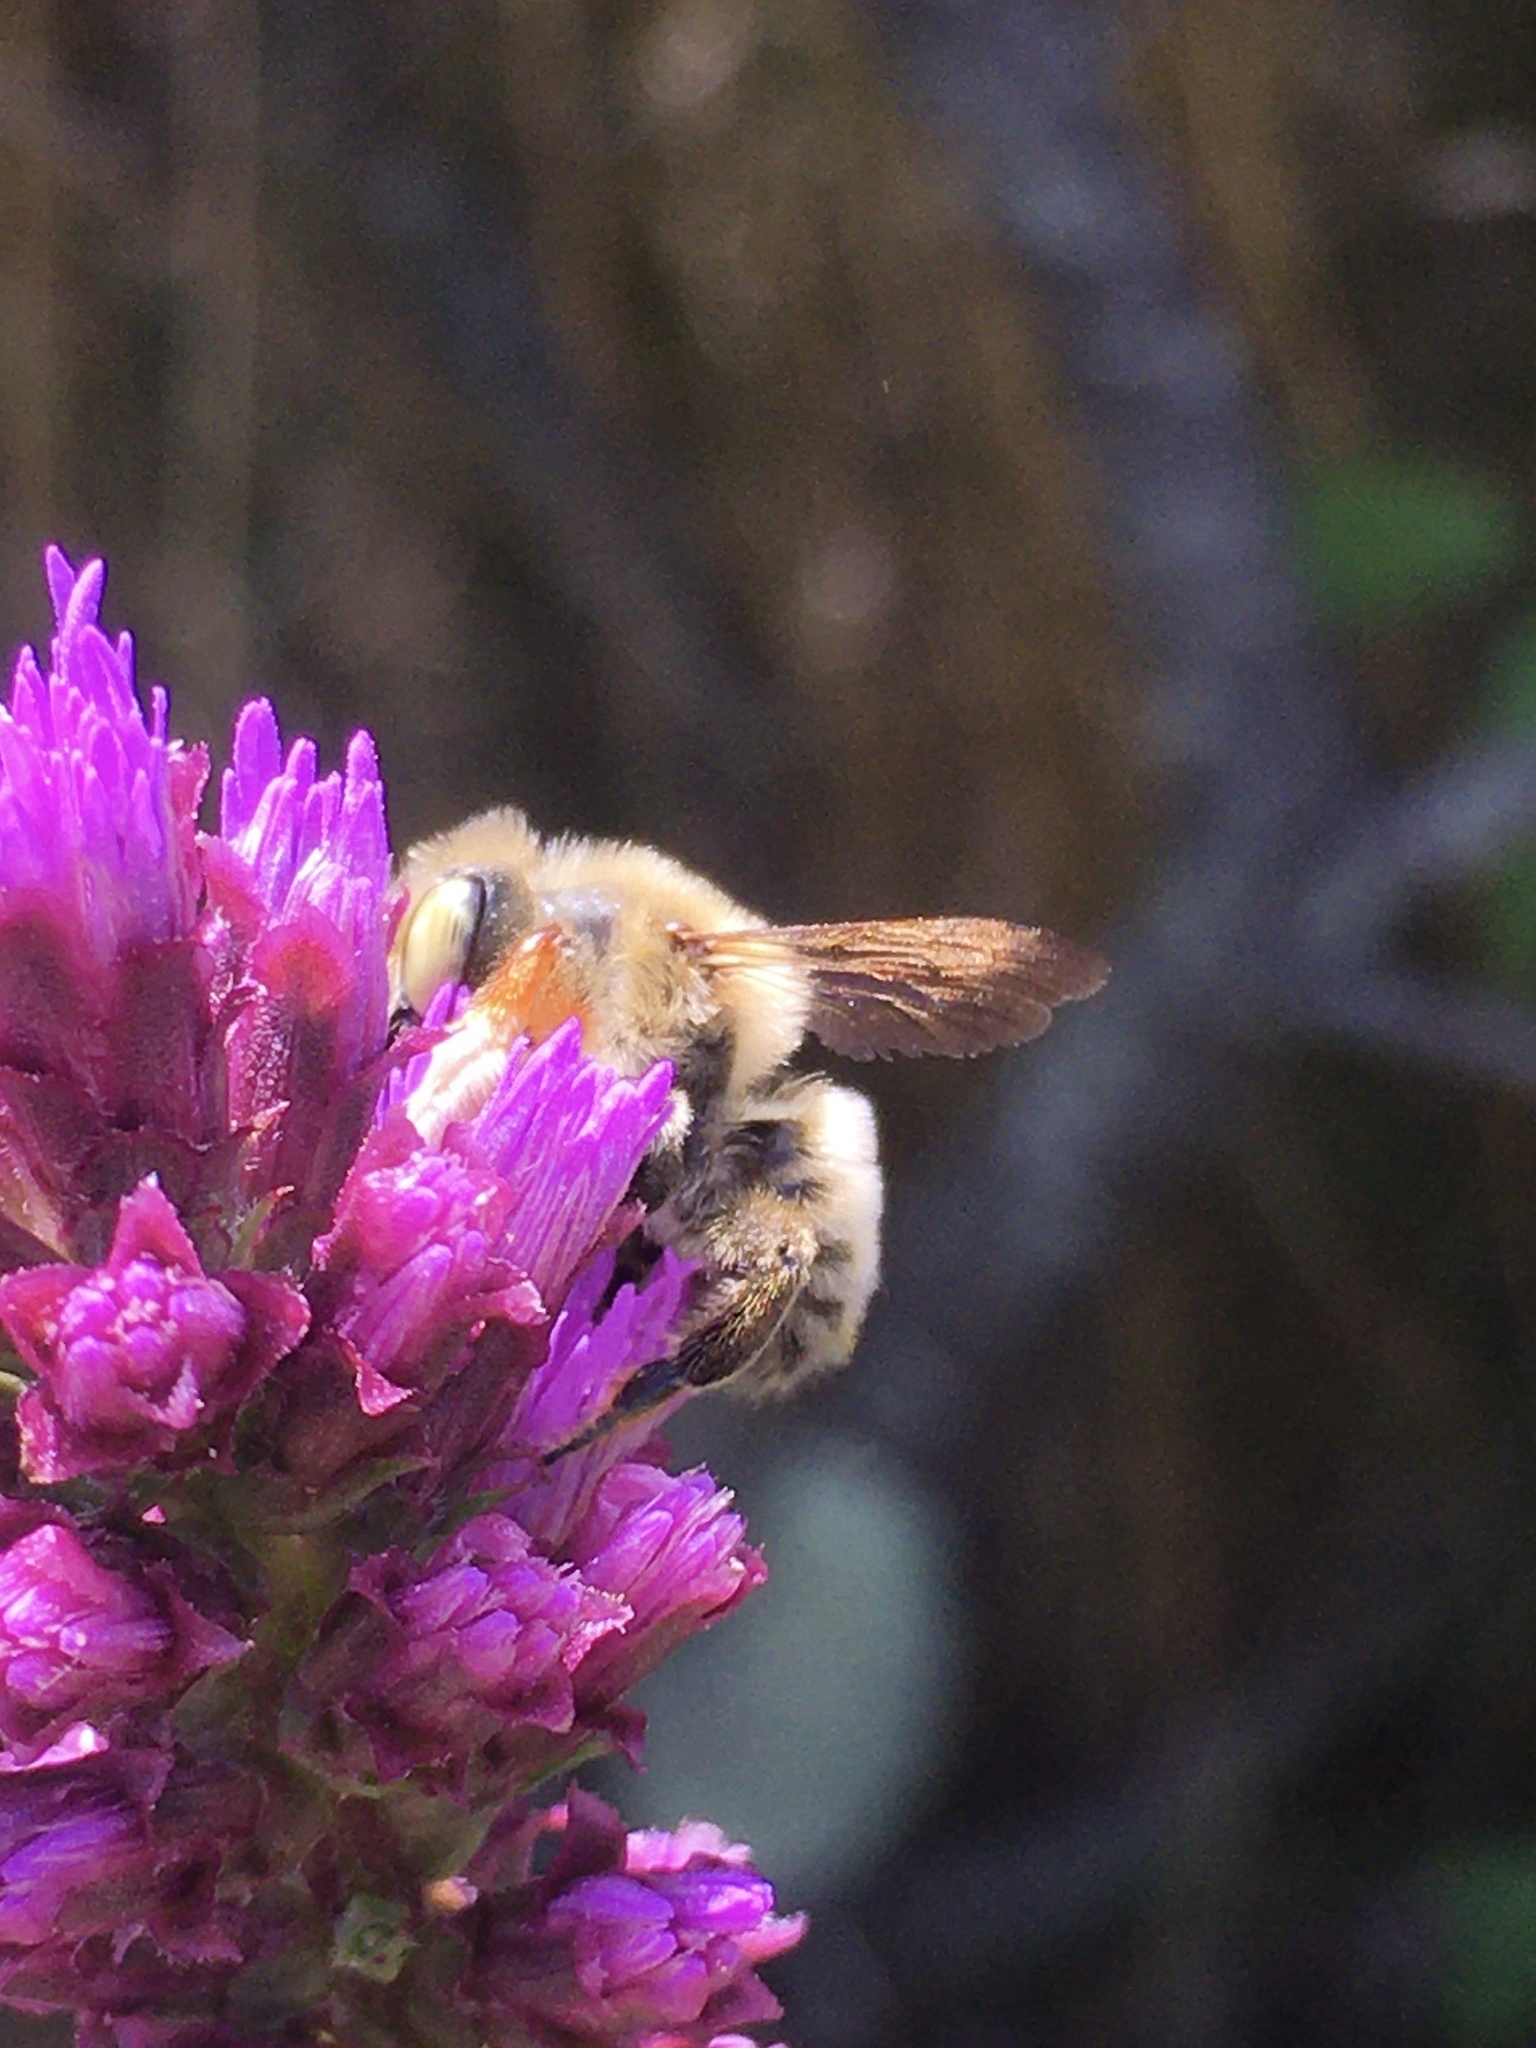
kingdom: Animalia
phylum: Arthropoda
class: Insecta
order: Hymenoptera
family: Megachilidae
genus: Megachile
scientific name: Megachile latimanus
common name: Leafcutting bee
